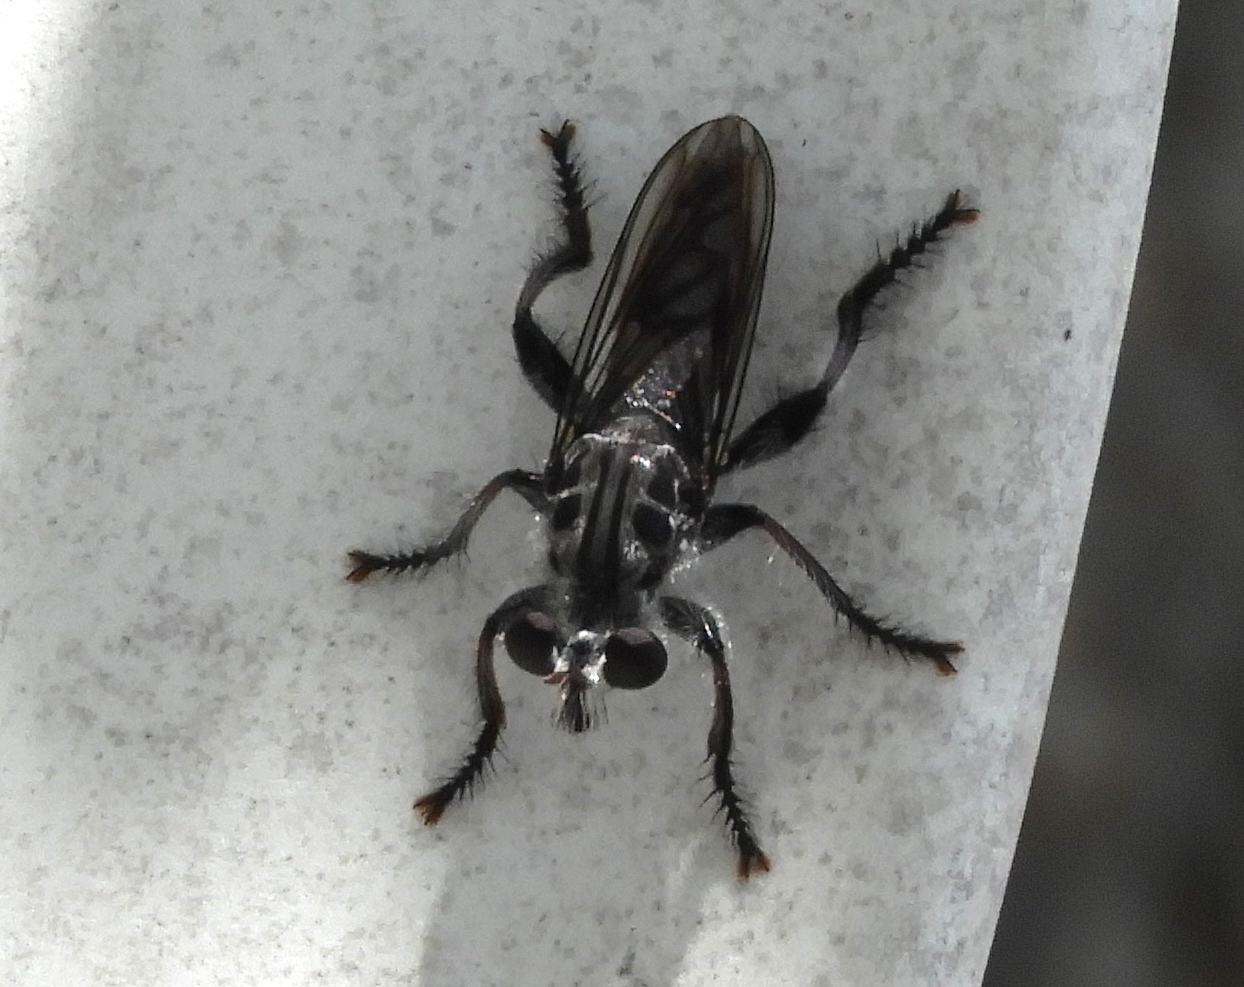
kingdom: Animalia
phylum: Arthropoda
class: Insecta
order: Diptera
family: Asilidae
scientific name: Asilidae
